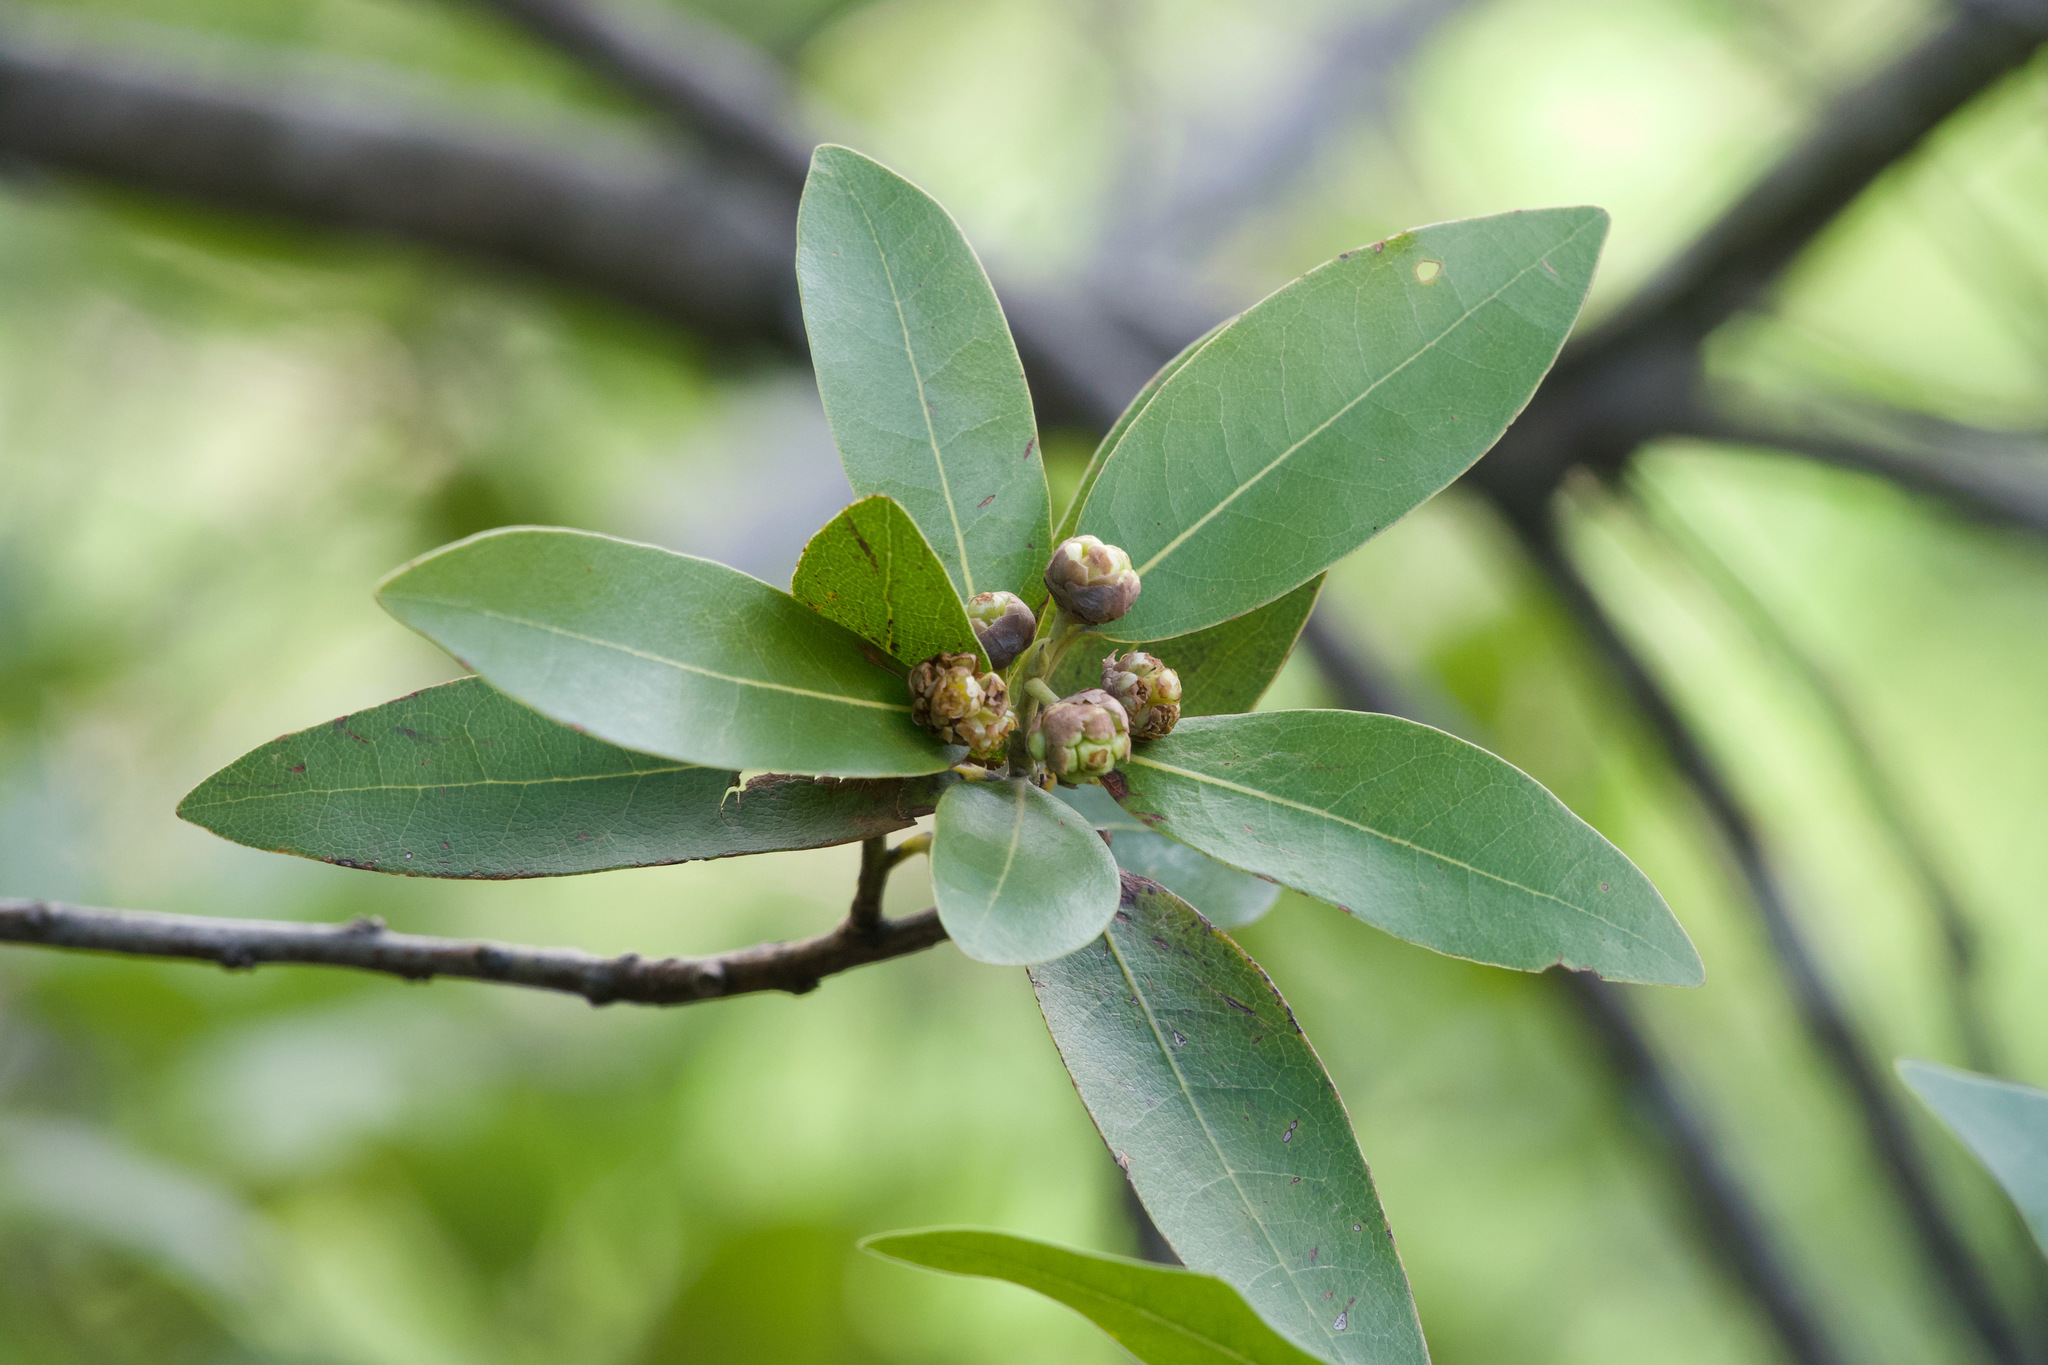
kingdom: Plantae
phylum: Tracheophyta
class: Magnoliopsida
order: Laurales
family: Lauraceae
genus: Umbellularia
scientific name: Umbellularia californica
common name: California bay
